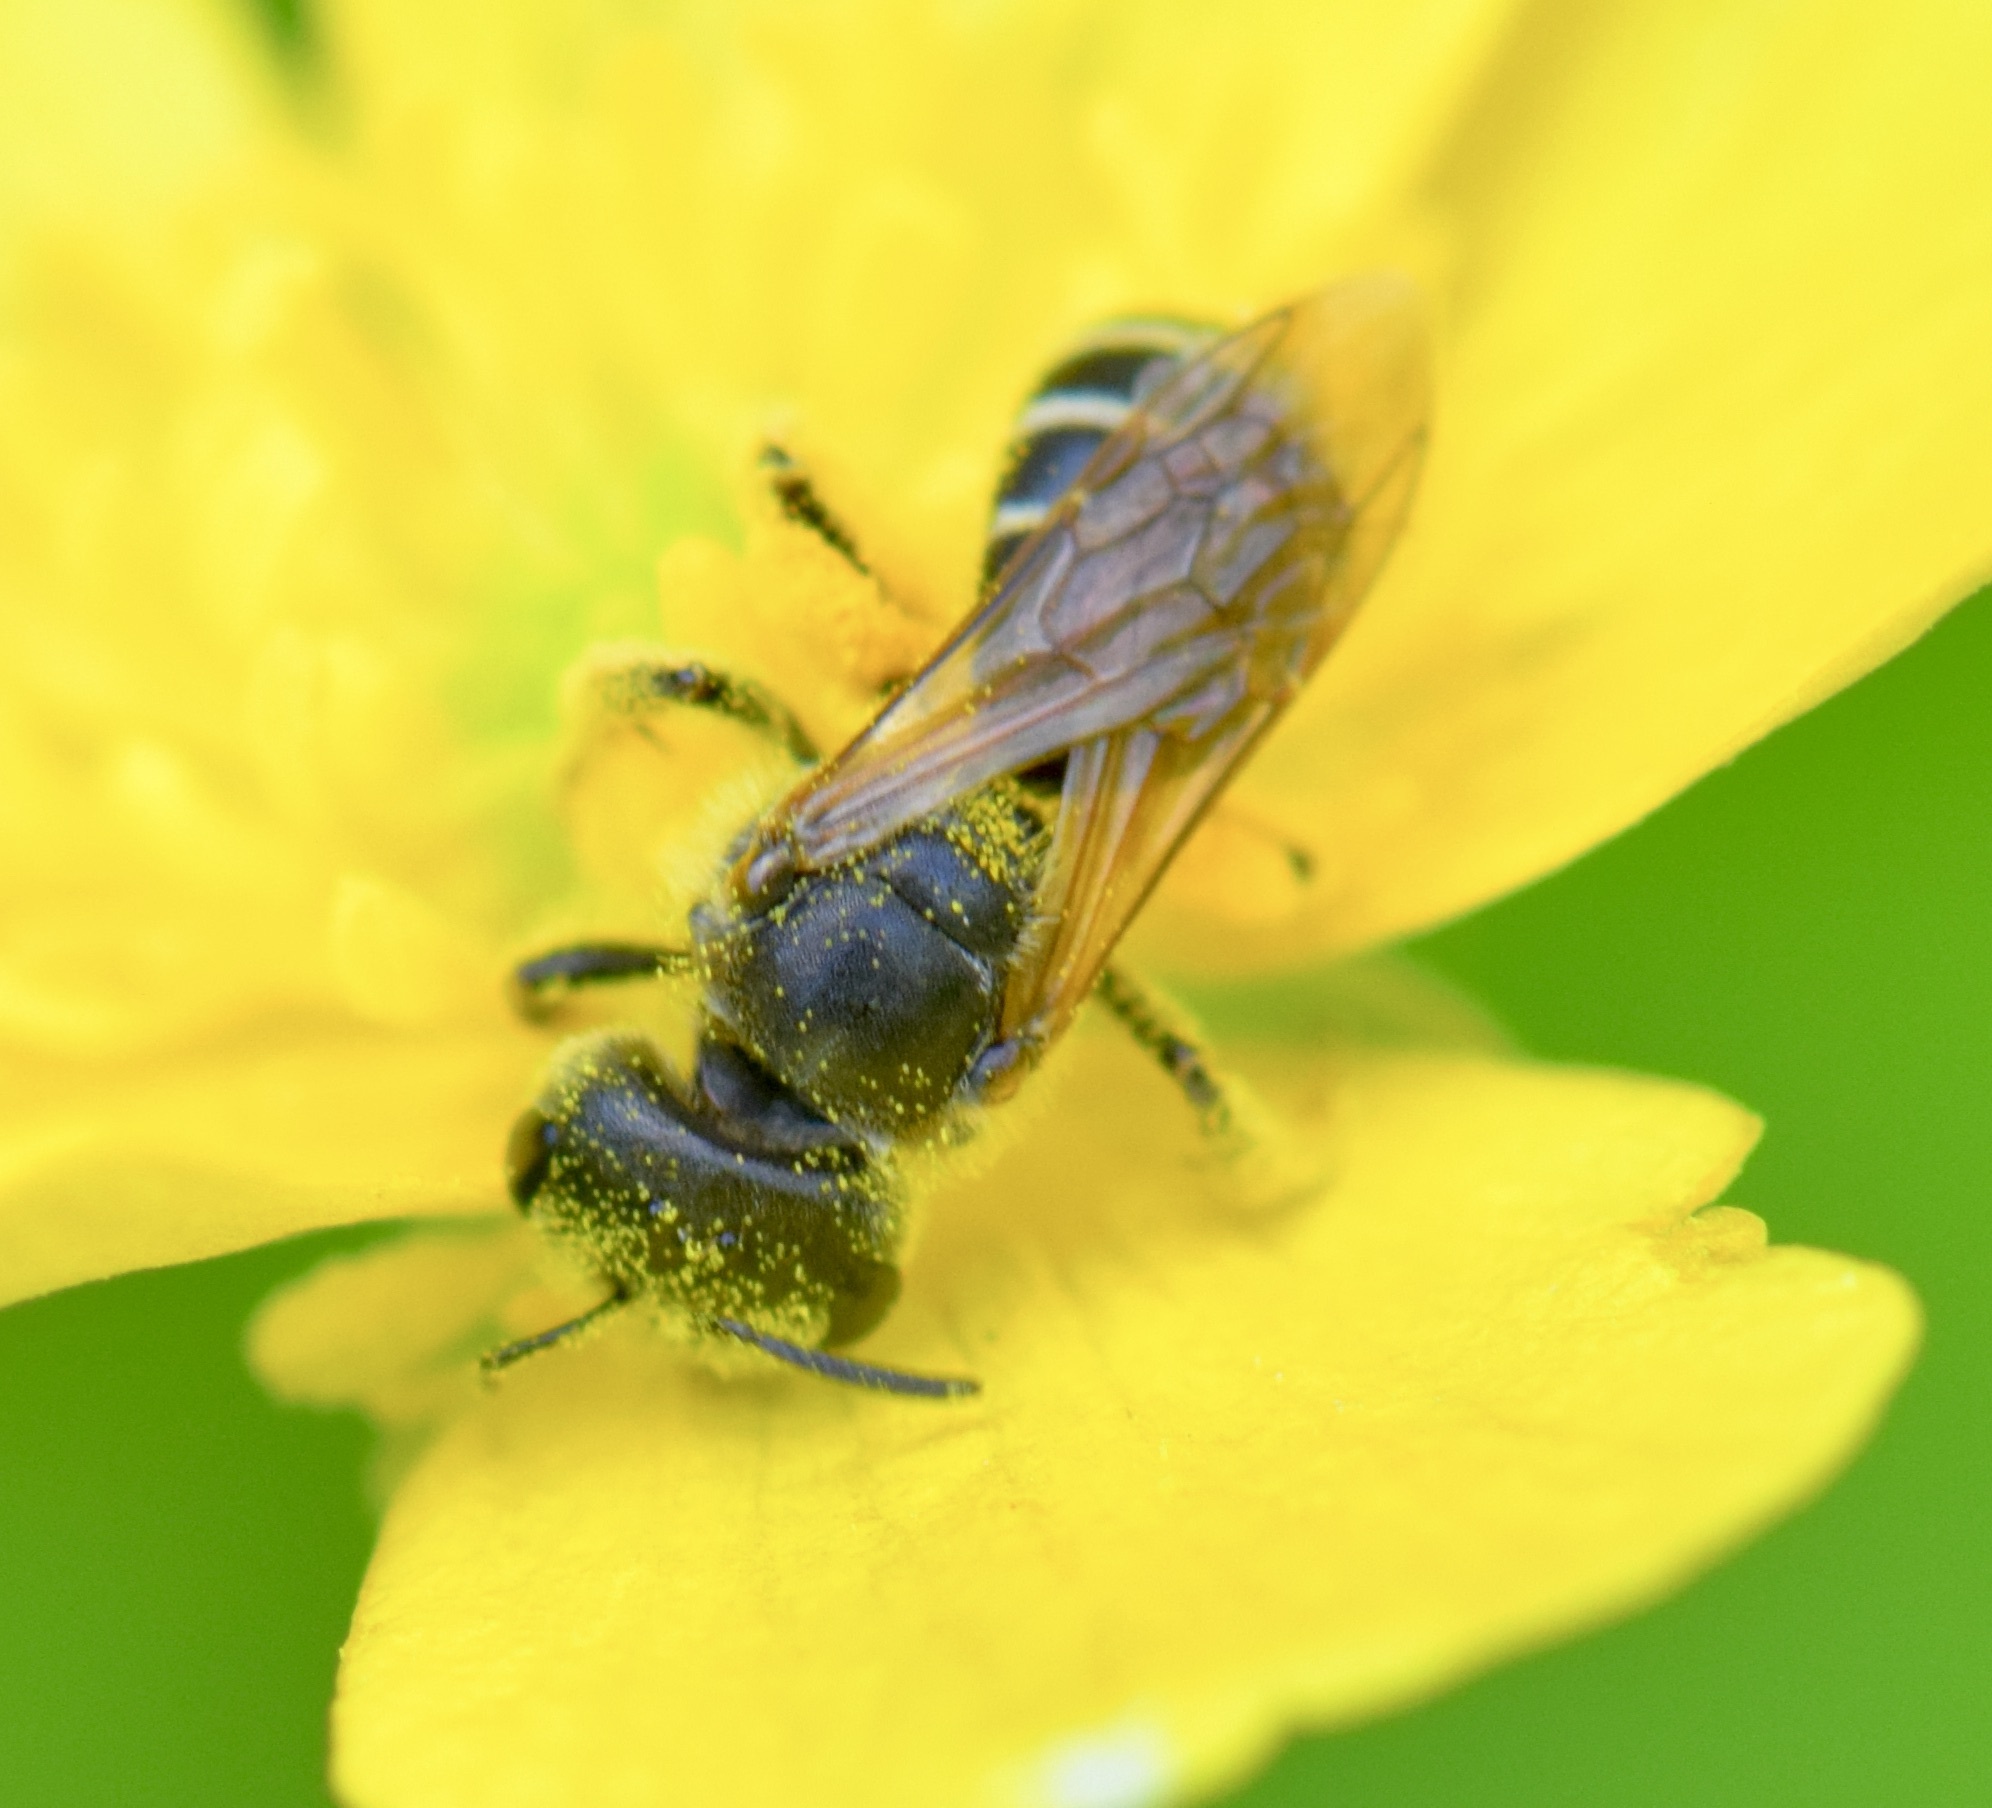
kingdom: Animalia
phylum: Arthropoda
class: Insecta
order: Hymenoptera
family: Halictidae
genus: Halictus
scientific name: Halictus ligatus
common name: Ligated furrow bee
